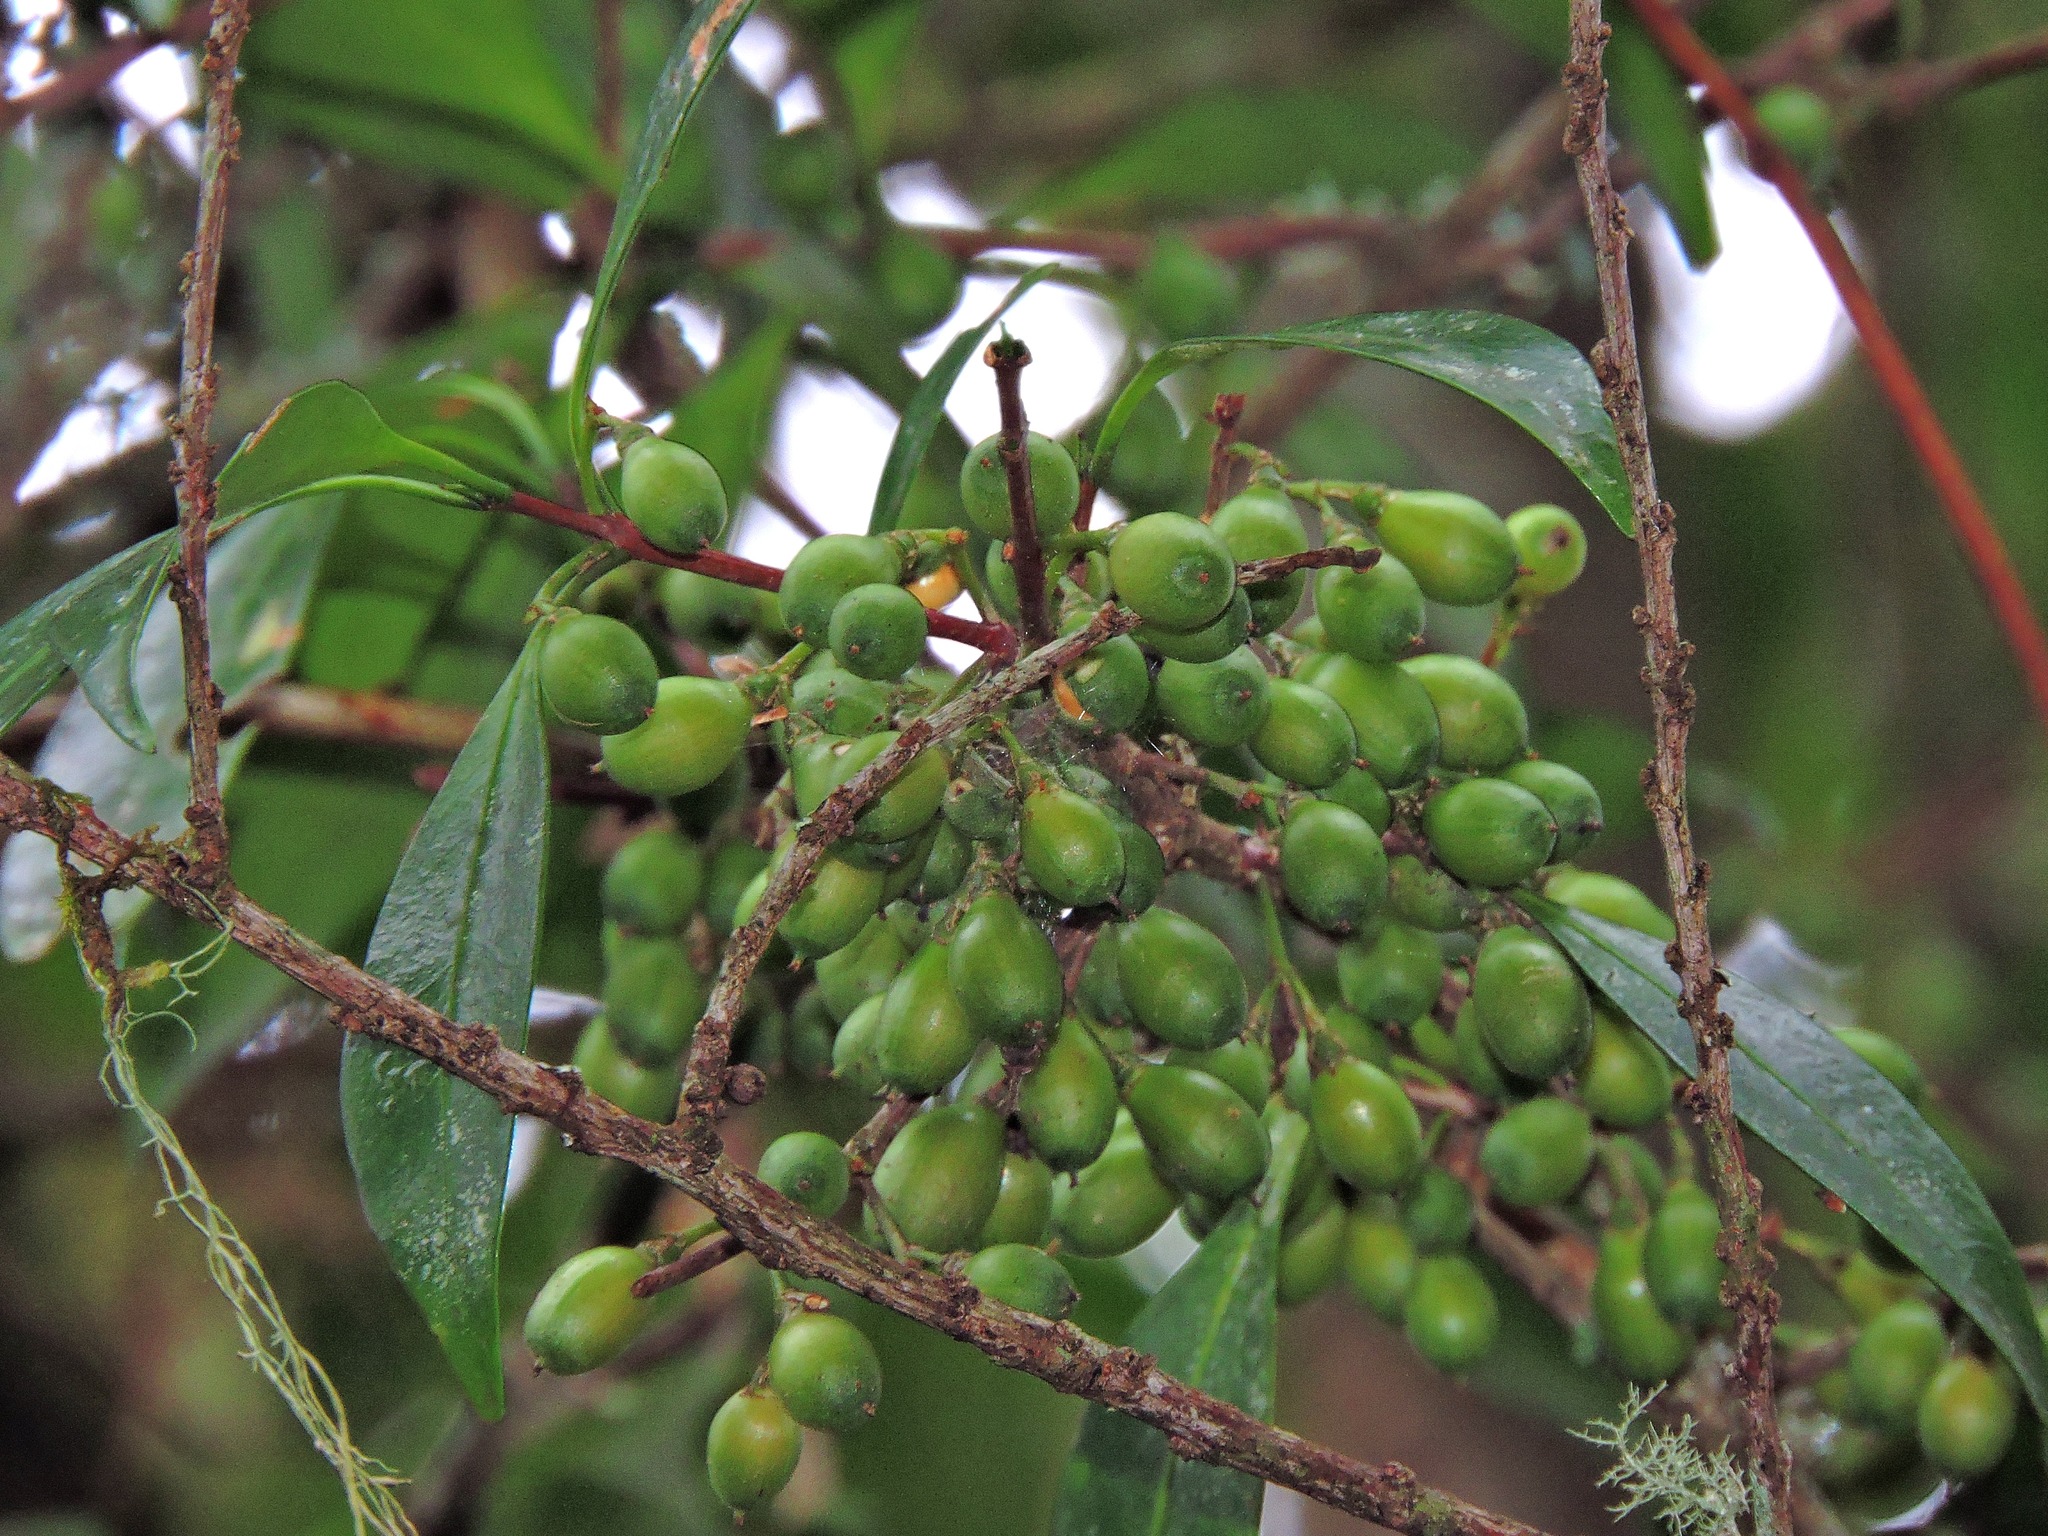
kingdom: Plantae
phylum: Tracheophyta
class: Magnoliopsida
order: Celastrales
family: Celastraceae
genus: Microtropis
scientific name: Microtropis yunnanensis
